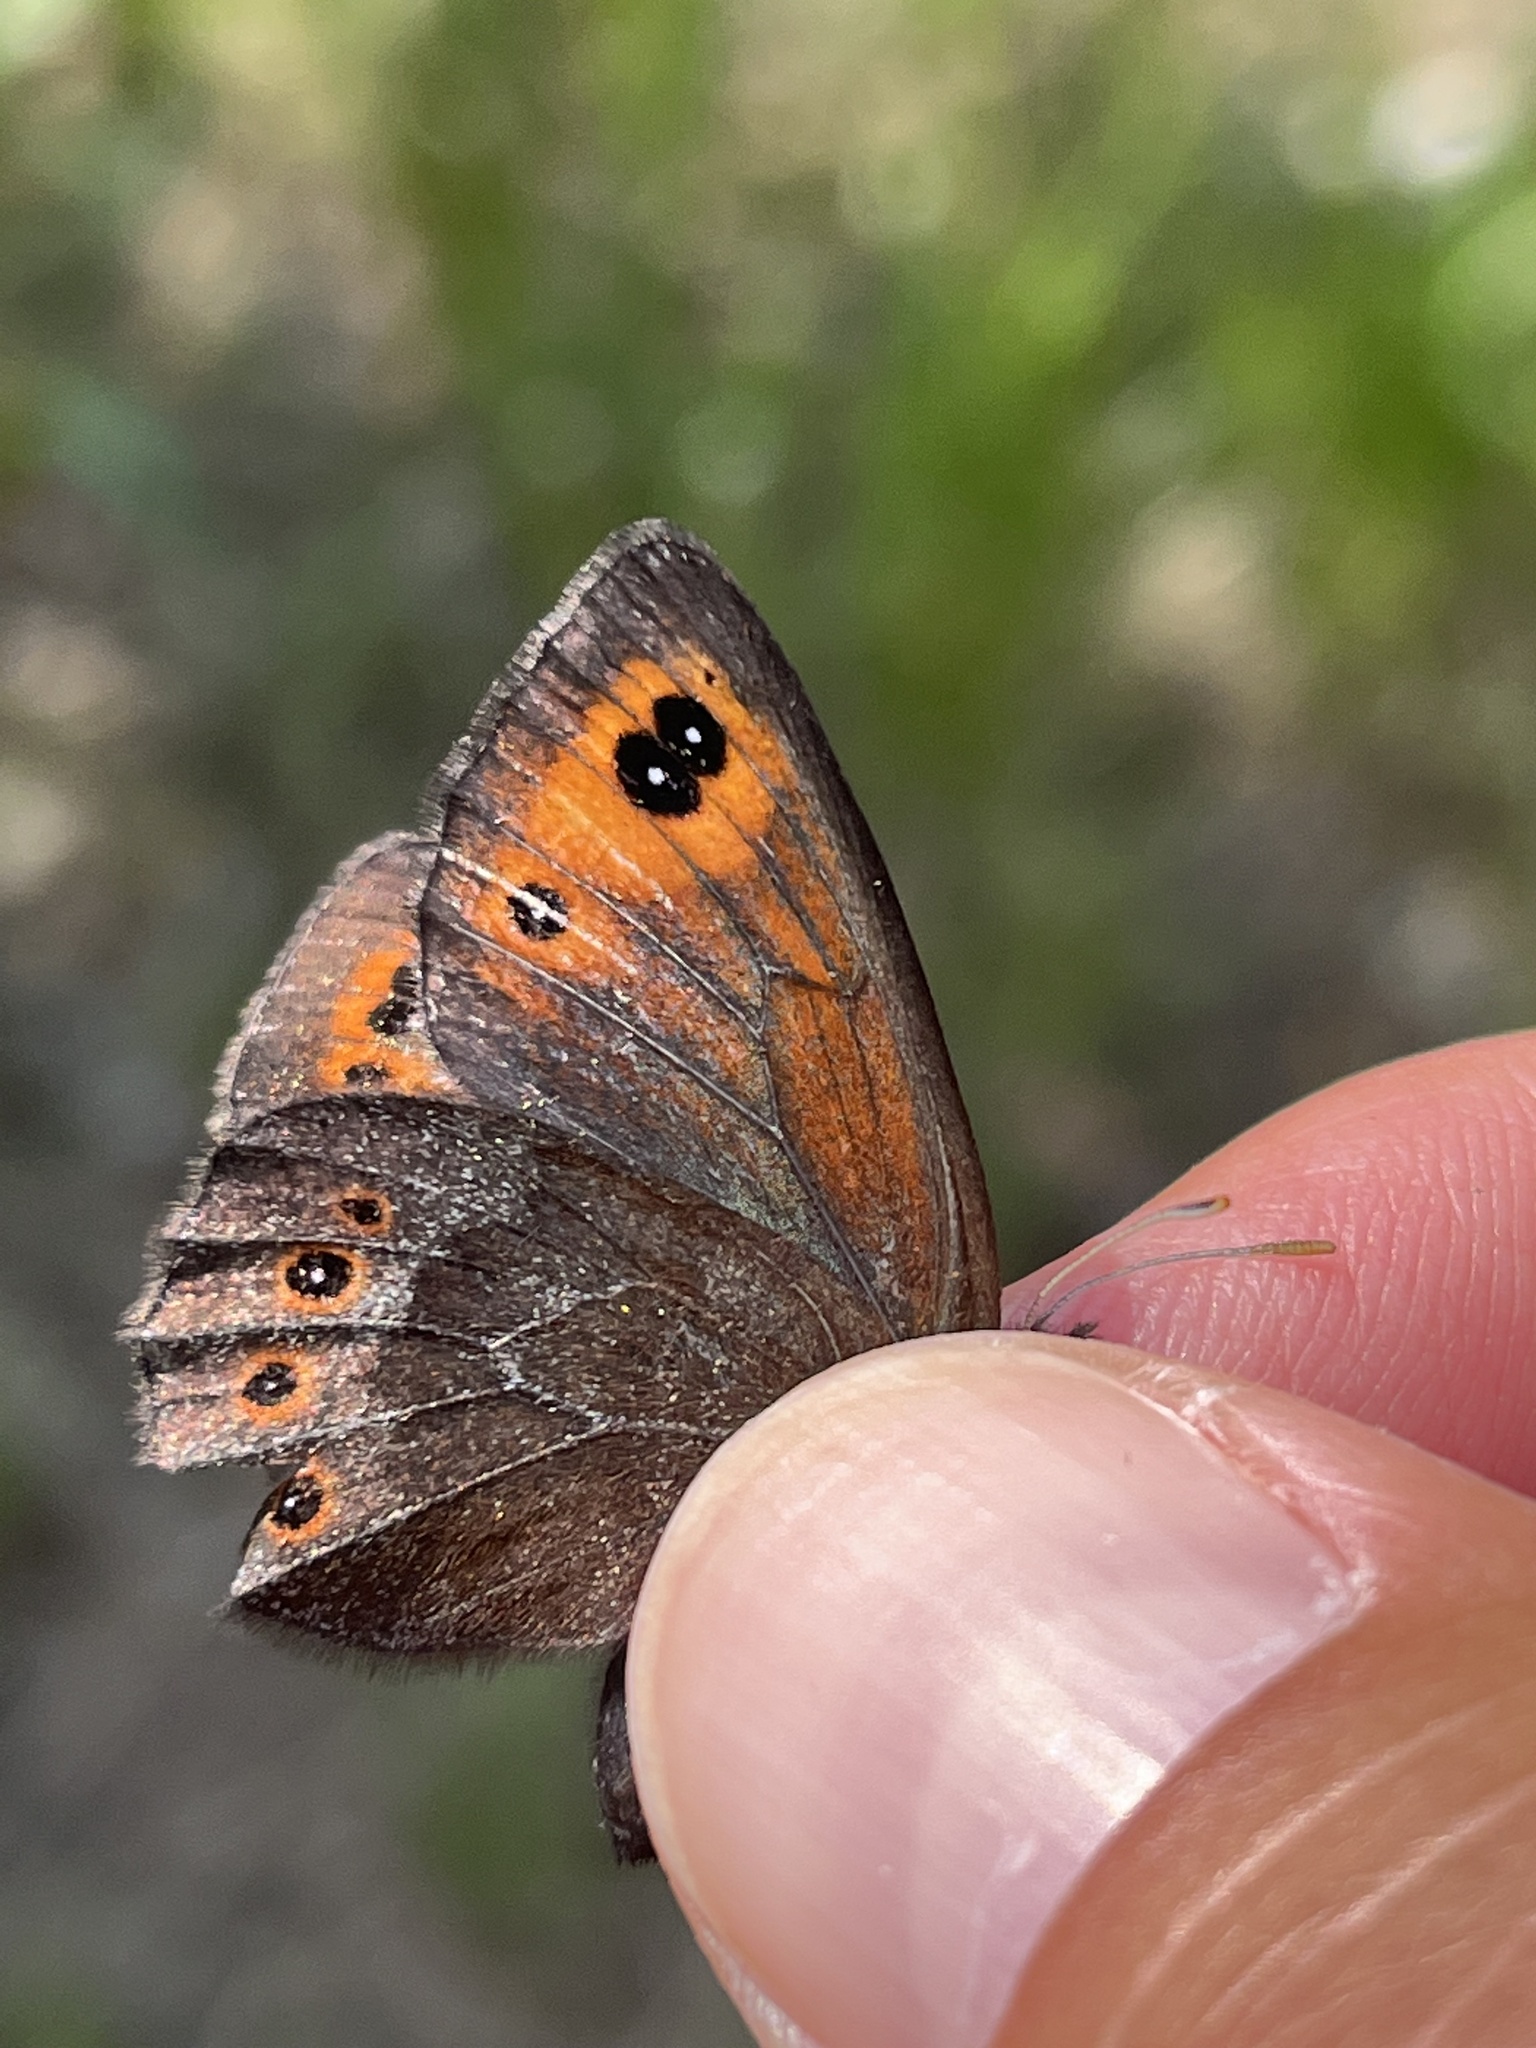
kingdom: Animalia
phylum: Arthropoda
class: Insecta
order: Lepidoptera
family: Nymphalidae
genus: Erebia
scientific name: Erebia epipsodea
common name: Common alpine
